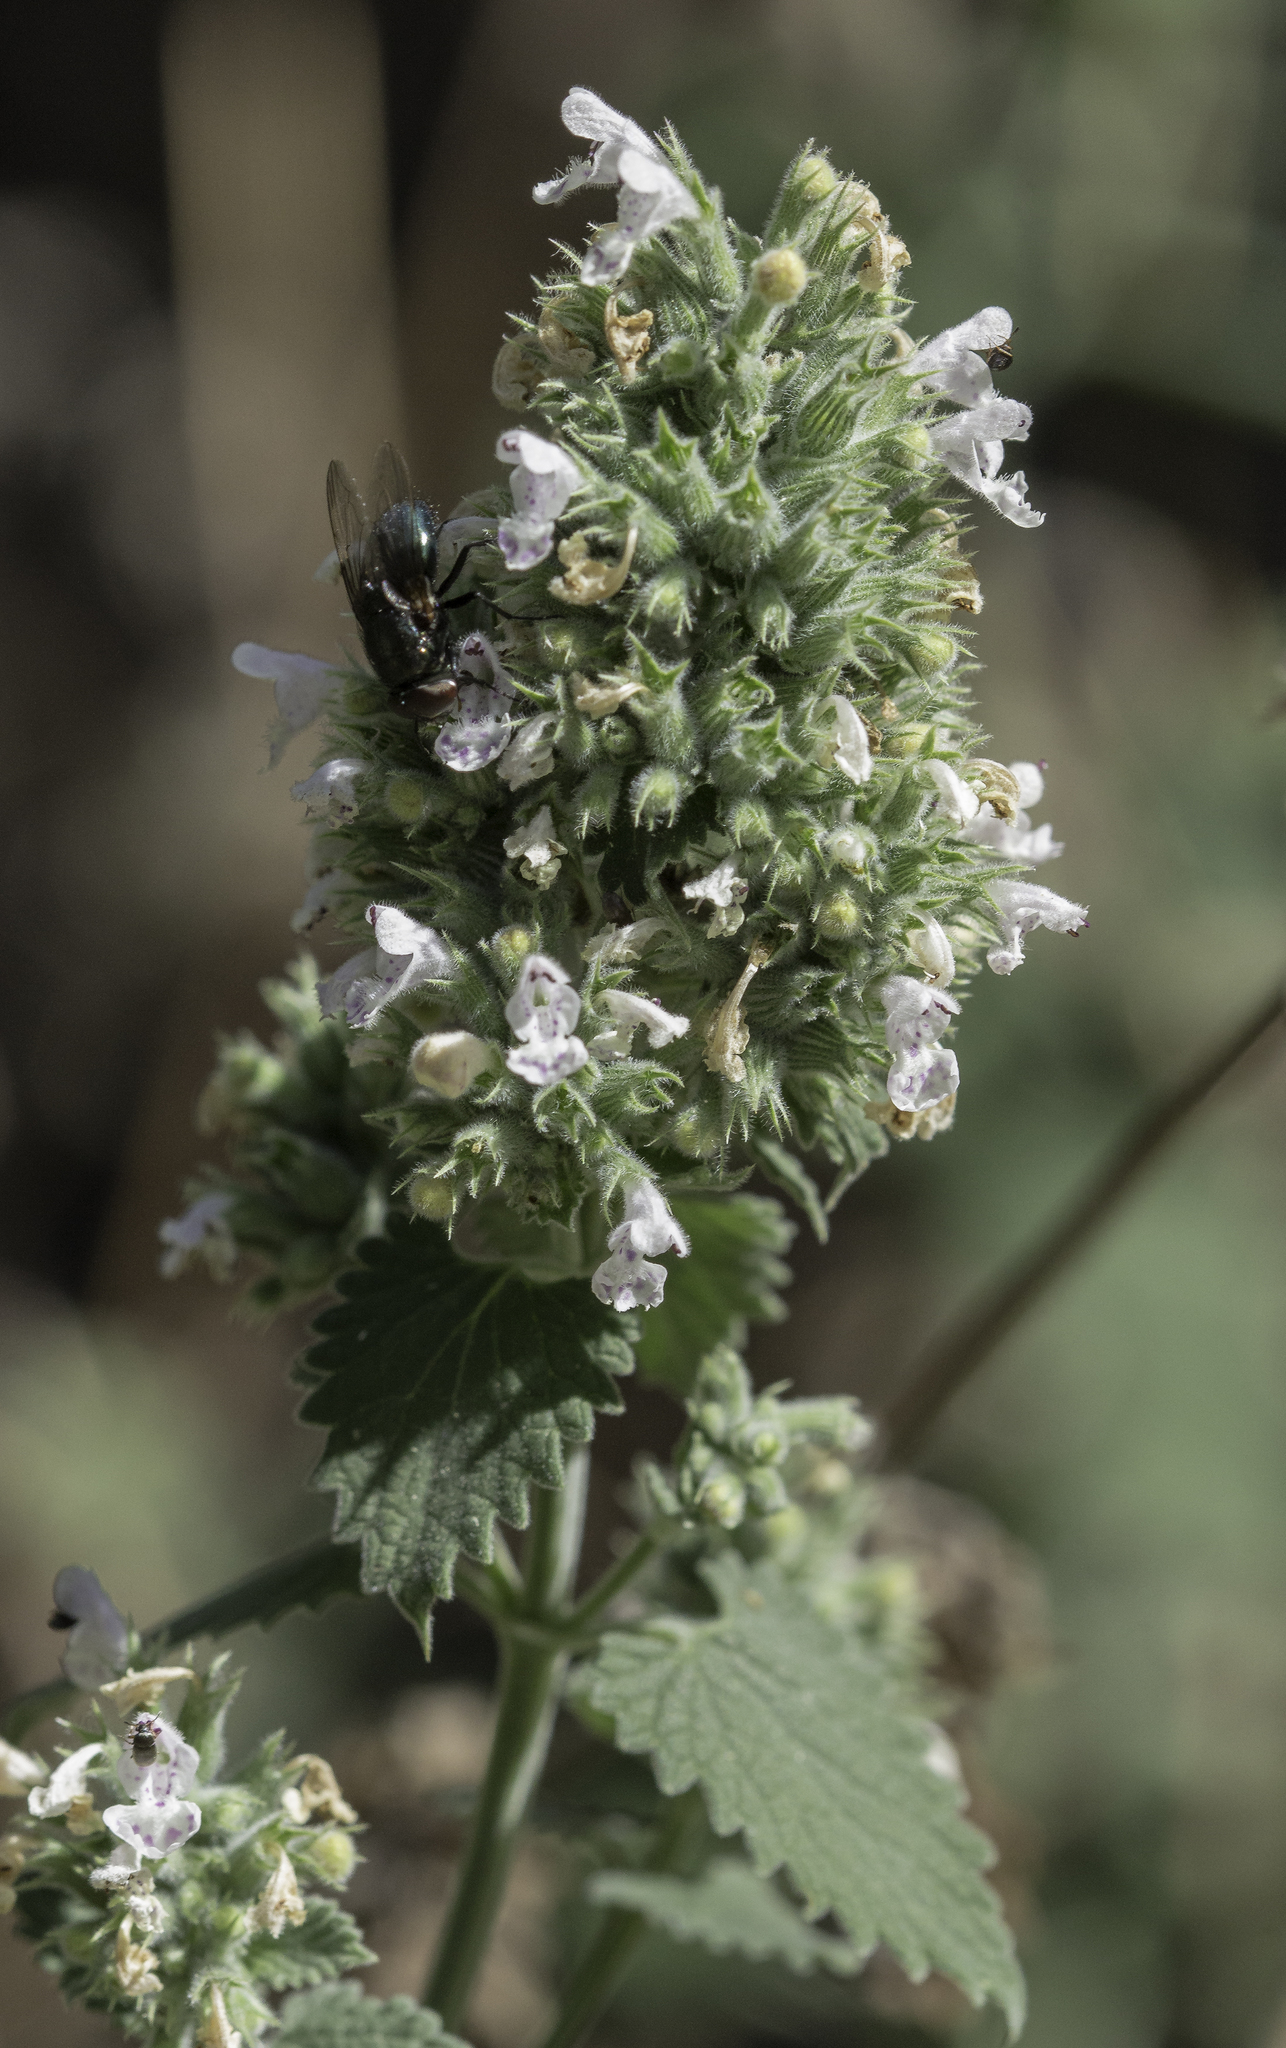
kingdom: Plantae
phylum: Tracheophyta
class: Magnoliopsida
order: Lamiales
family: Lamiaceae
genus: Nepeta
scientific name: Nepeta cataria
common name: Catnip
